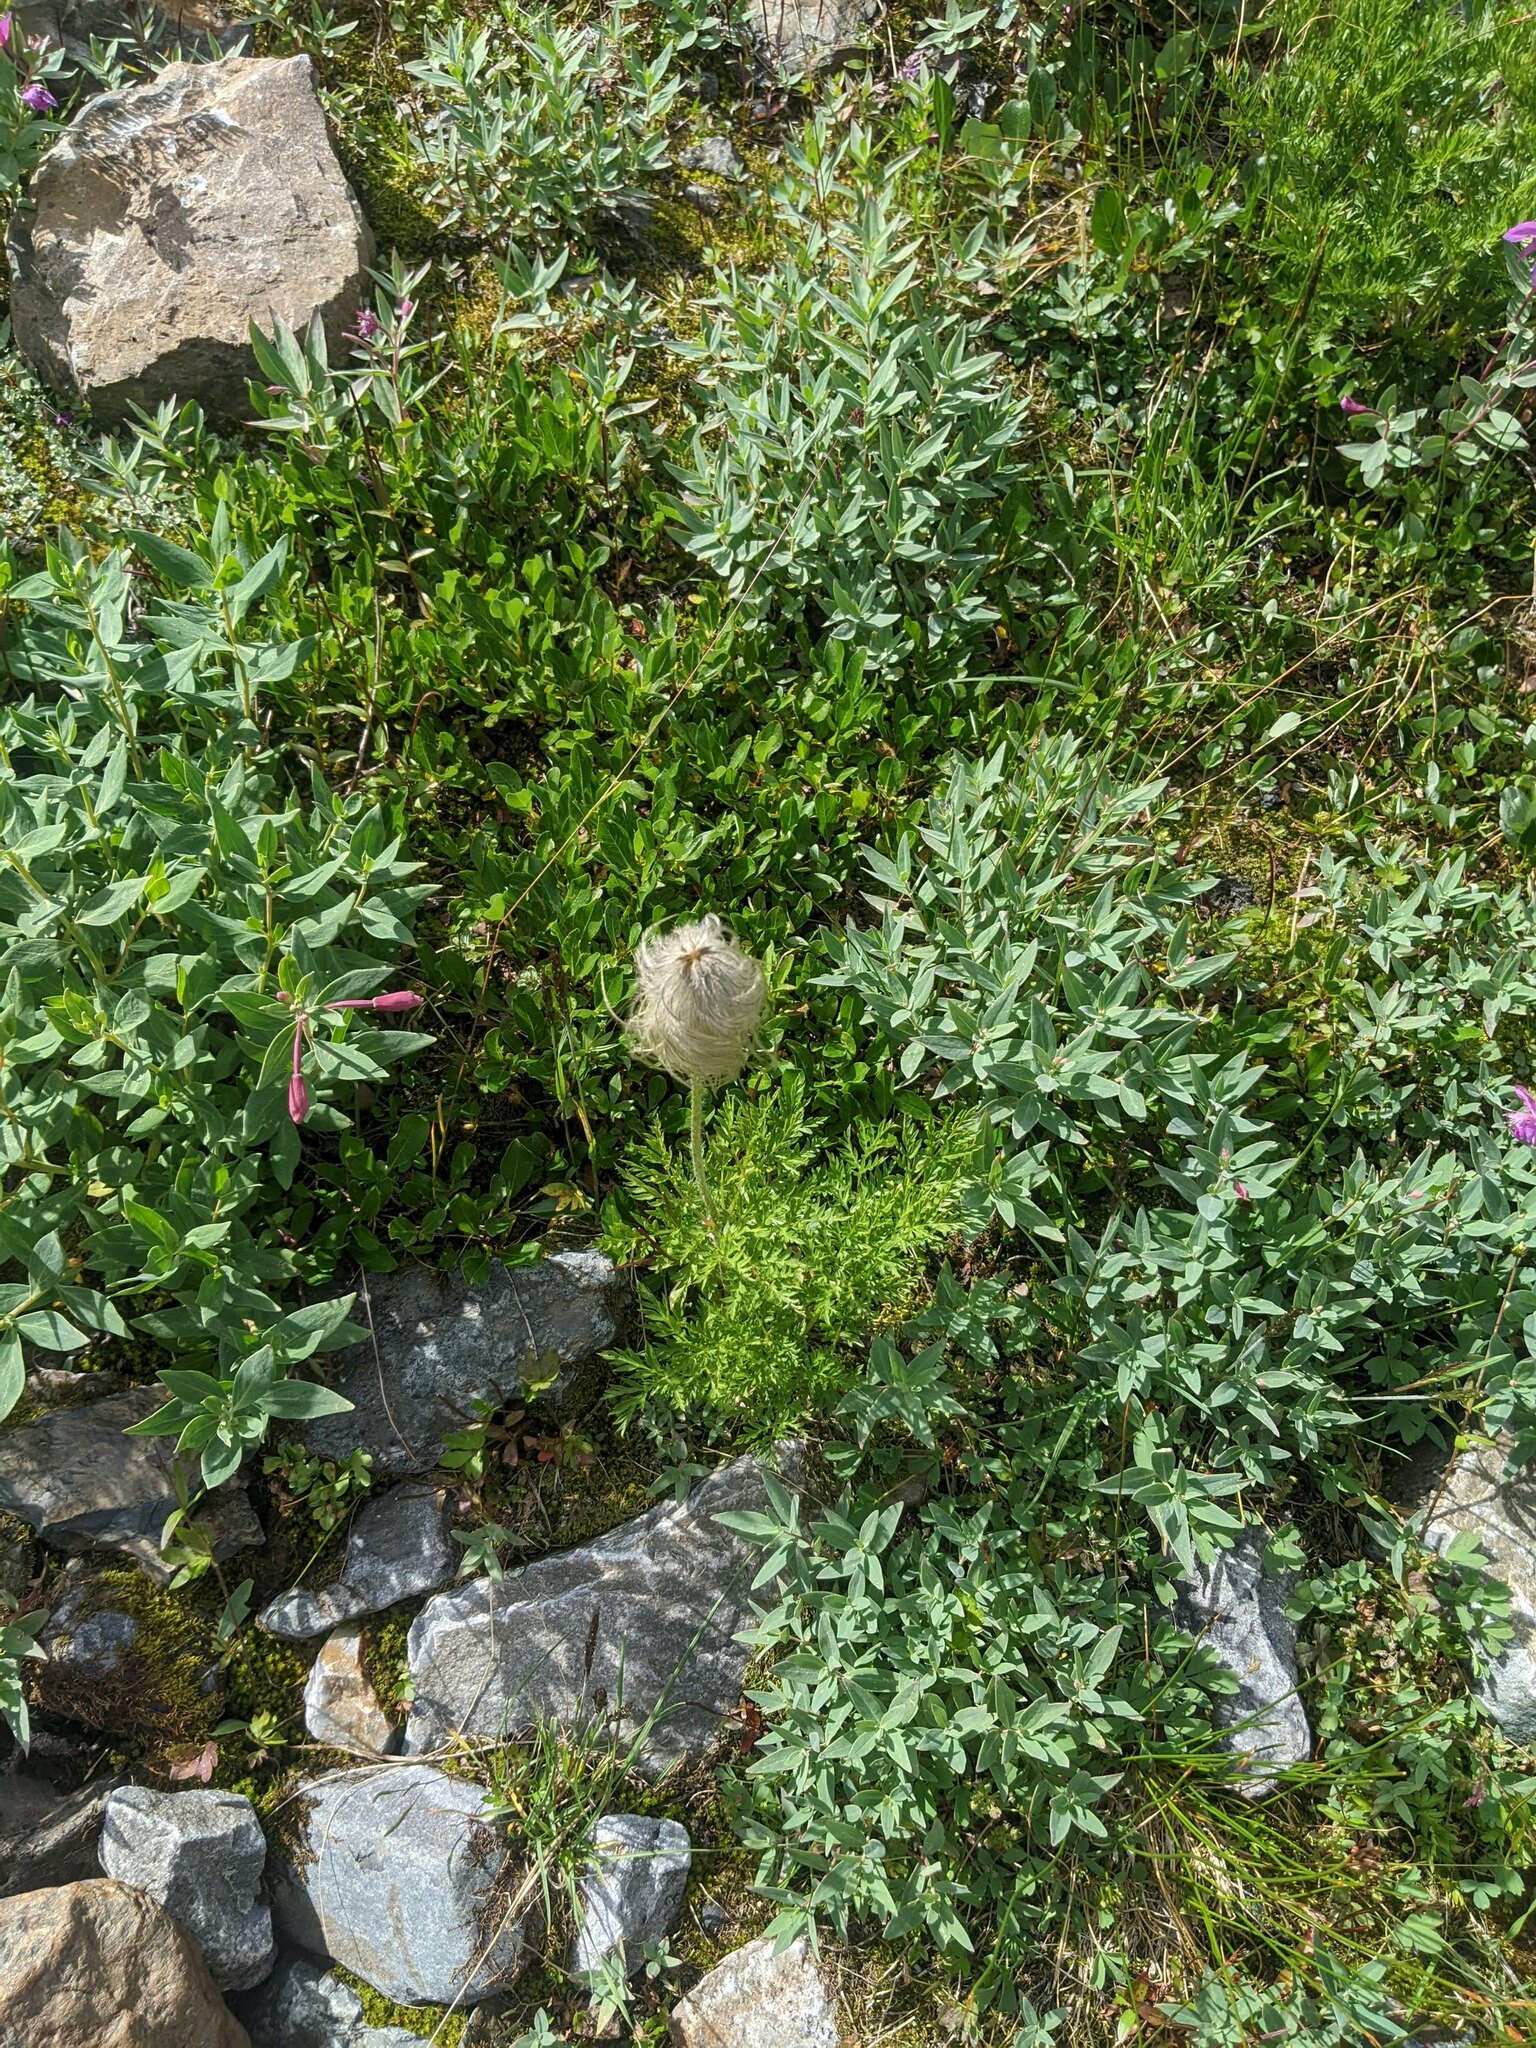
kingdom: Plantae
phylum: Tracheophyta
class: Magnoliopsida
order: Ranunculales
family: Ranunculaceae
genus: Pulsatilla
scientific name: Pulsatilla occidentalis
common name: Mountain pasqueflower
